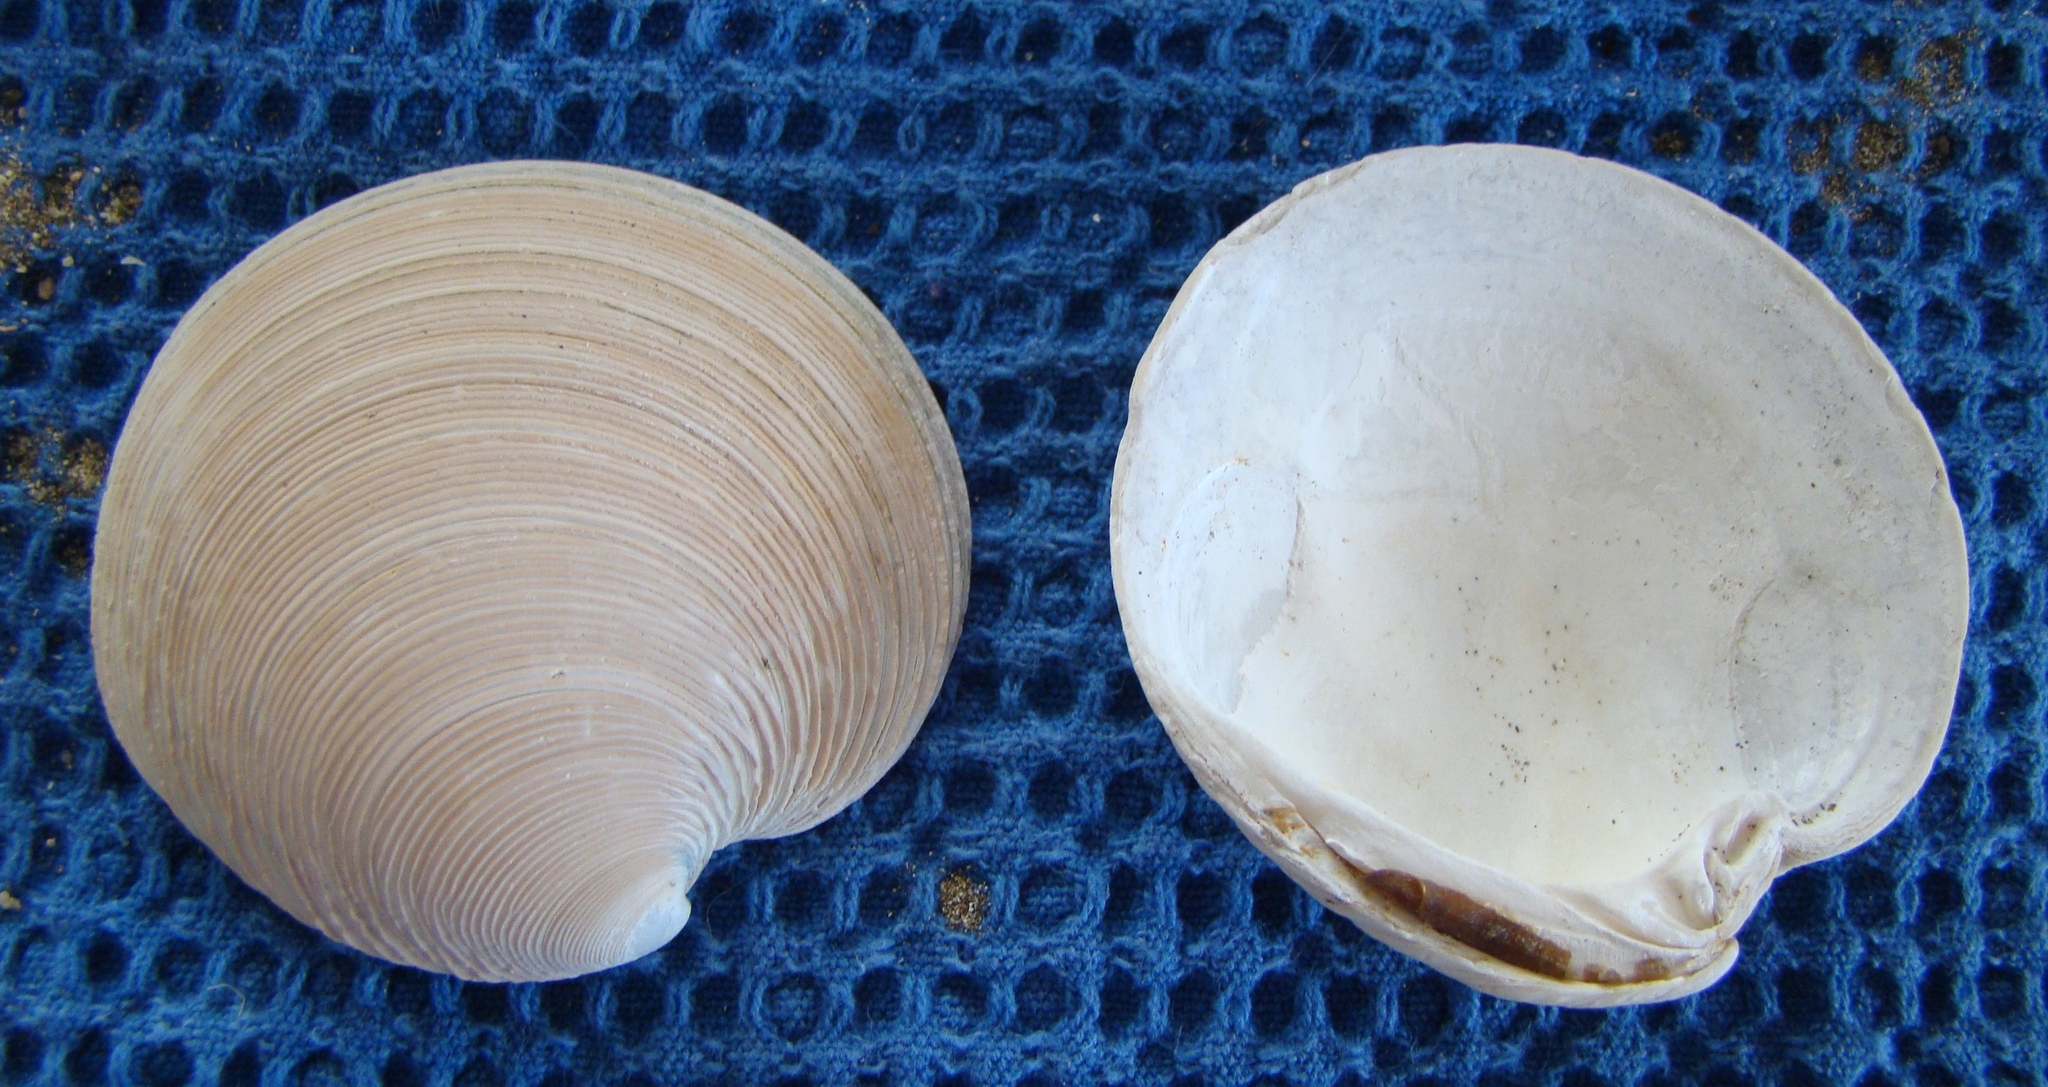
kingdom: Animalia
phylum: Mollusca
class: Bivalvia
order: Venerida
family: Veneridae
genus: Dosinia
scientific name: Dosinia anus
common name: Old-woman dosinia
